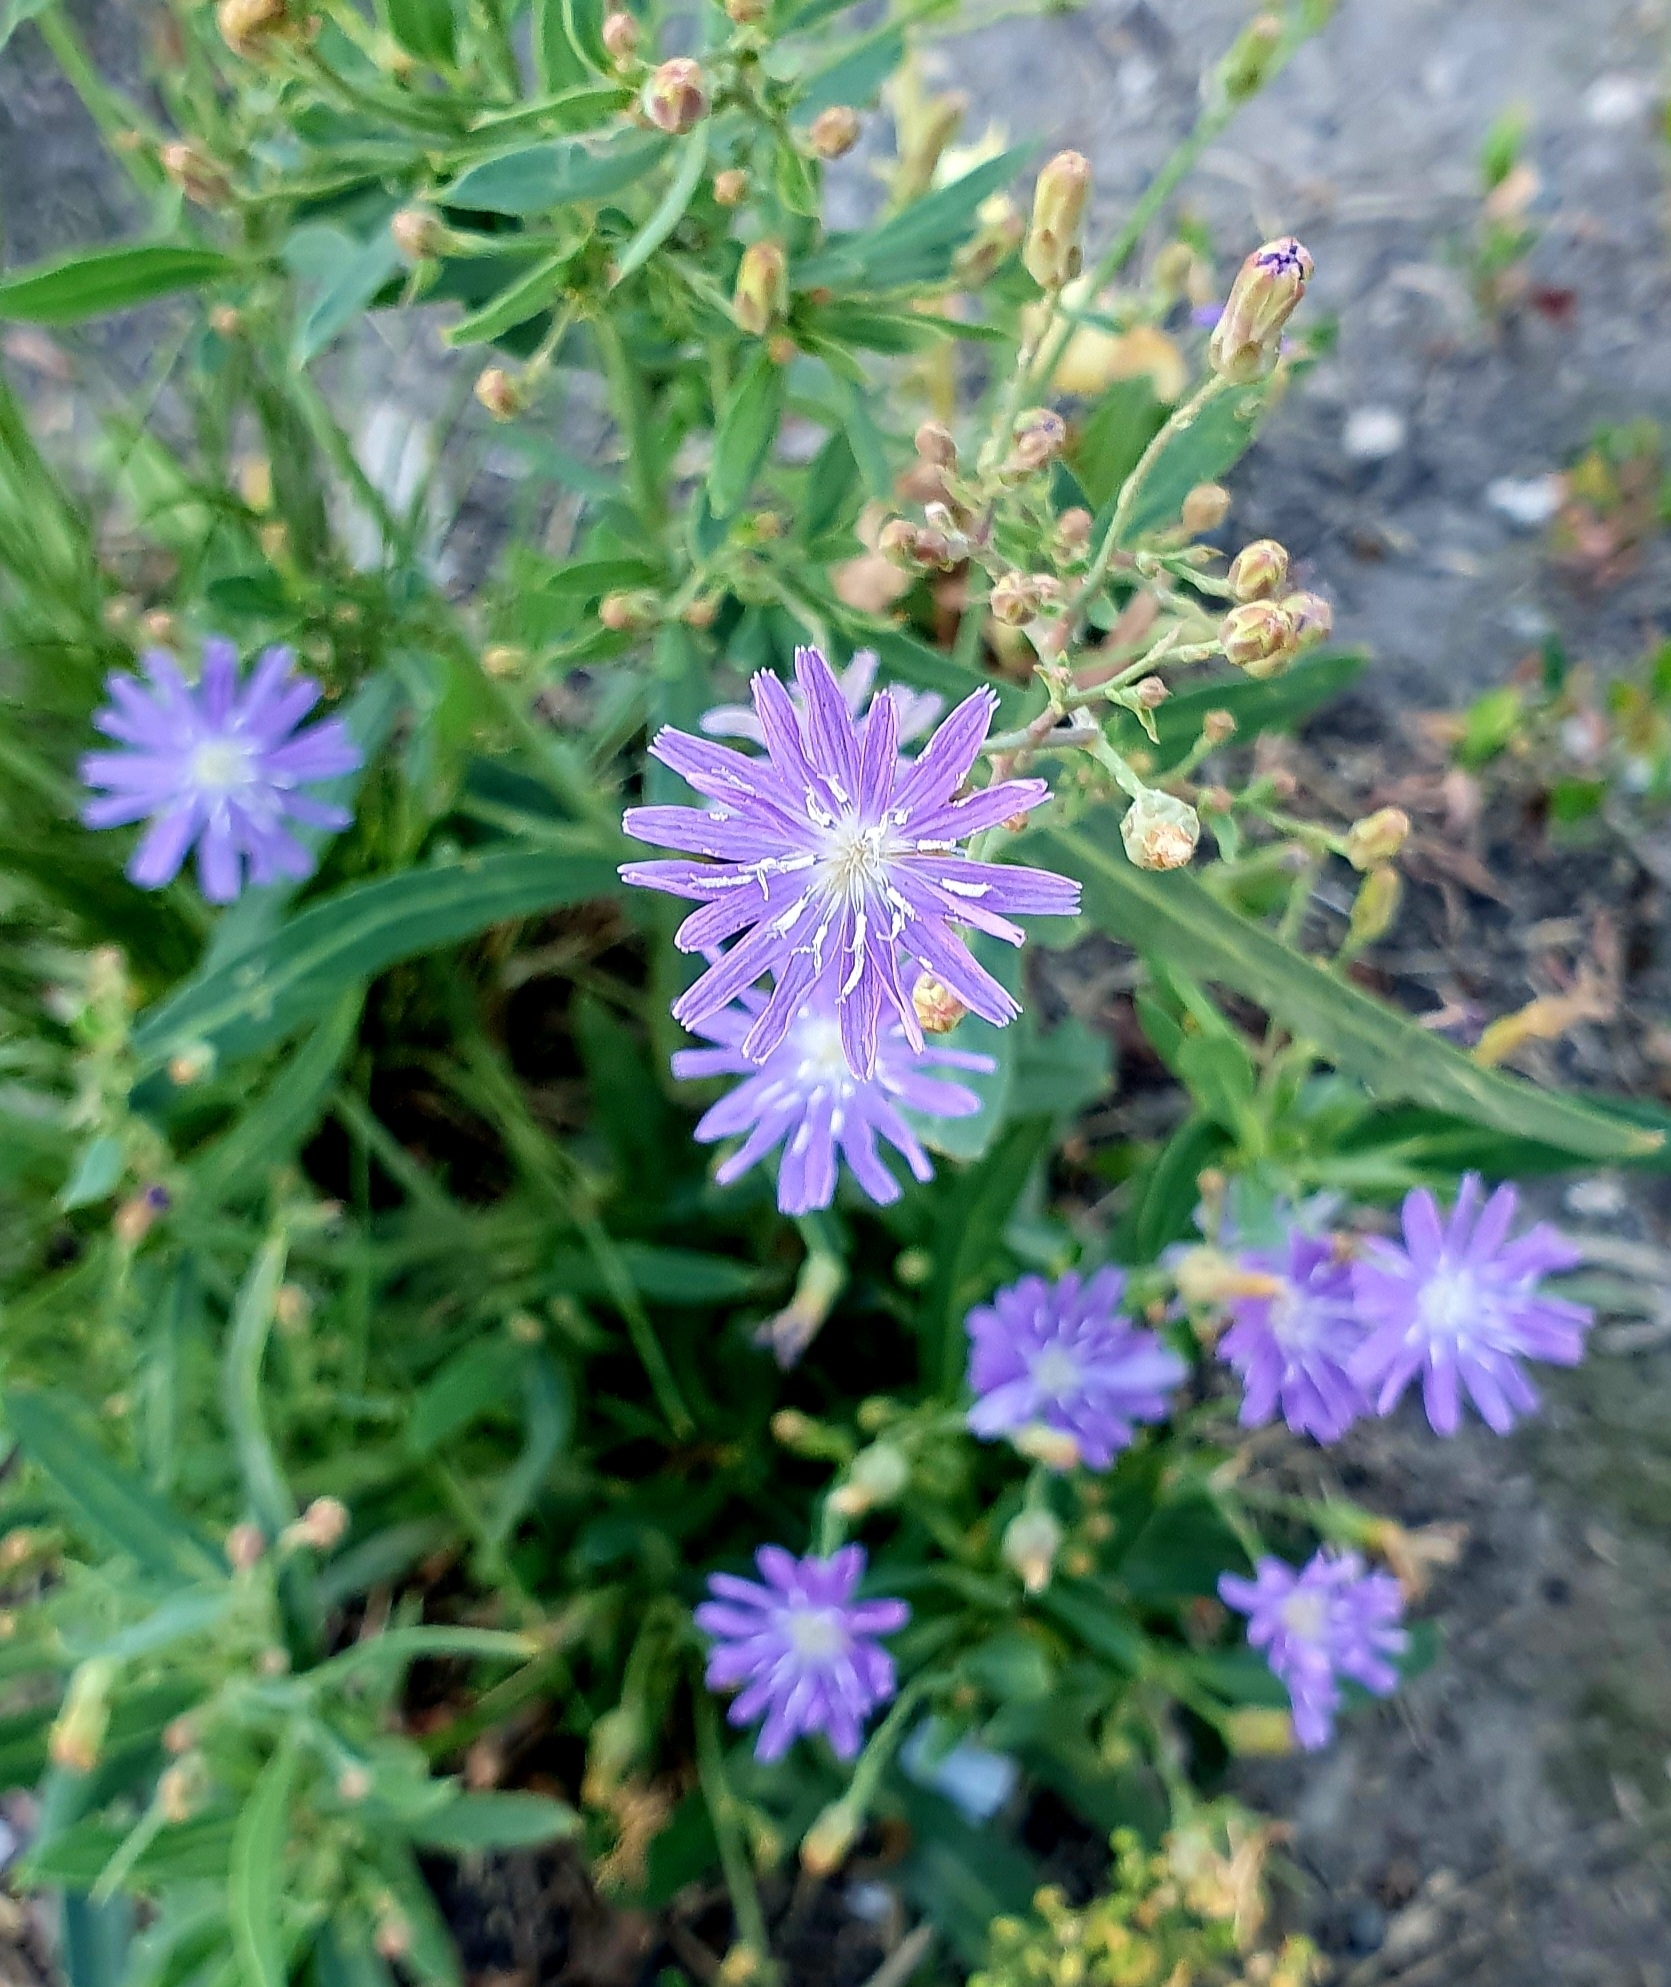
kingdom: Plantae
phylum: Tracheophyta
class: Magnoliopsida
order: Asterales
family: Asteraceae
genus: Lactuca
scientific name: Lactuca tatarica
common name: Blue lettuce
